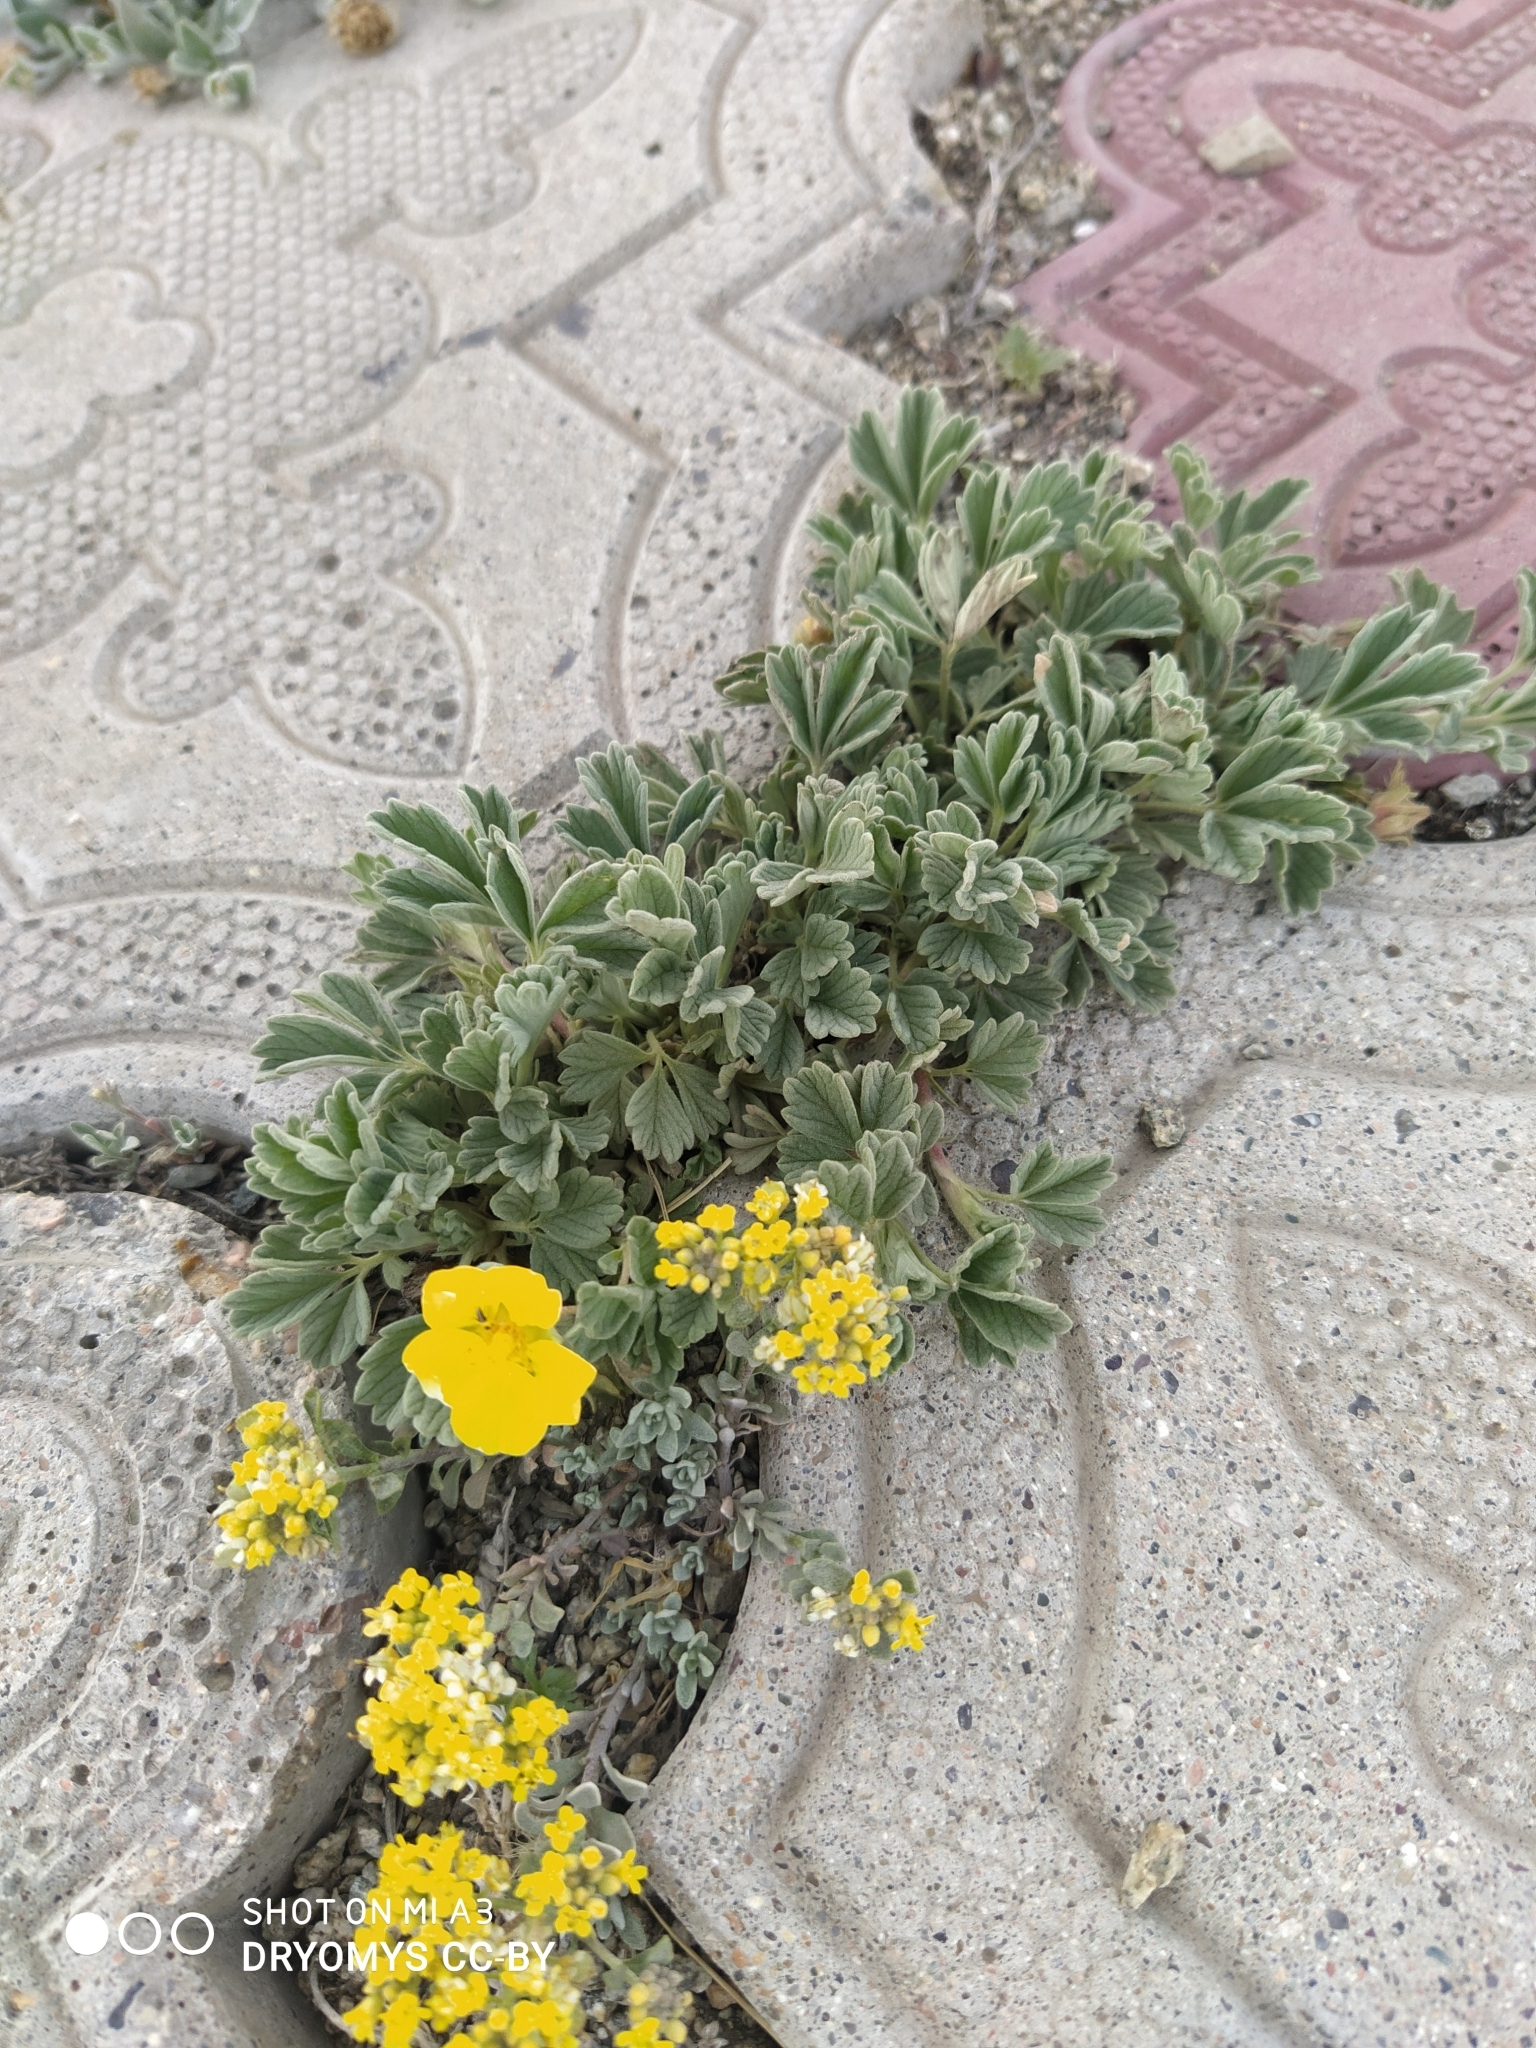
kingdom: Plantae
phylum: Tracheophyta
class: Magnoliopsida
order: Rosales
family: Rosaceae
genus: Potentilla
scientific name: Potentilla acaulis
